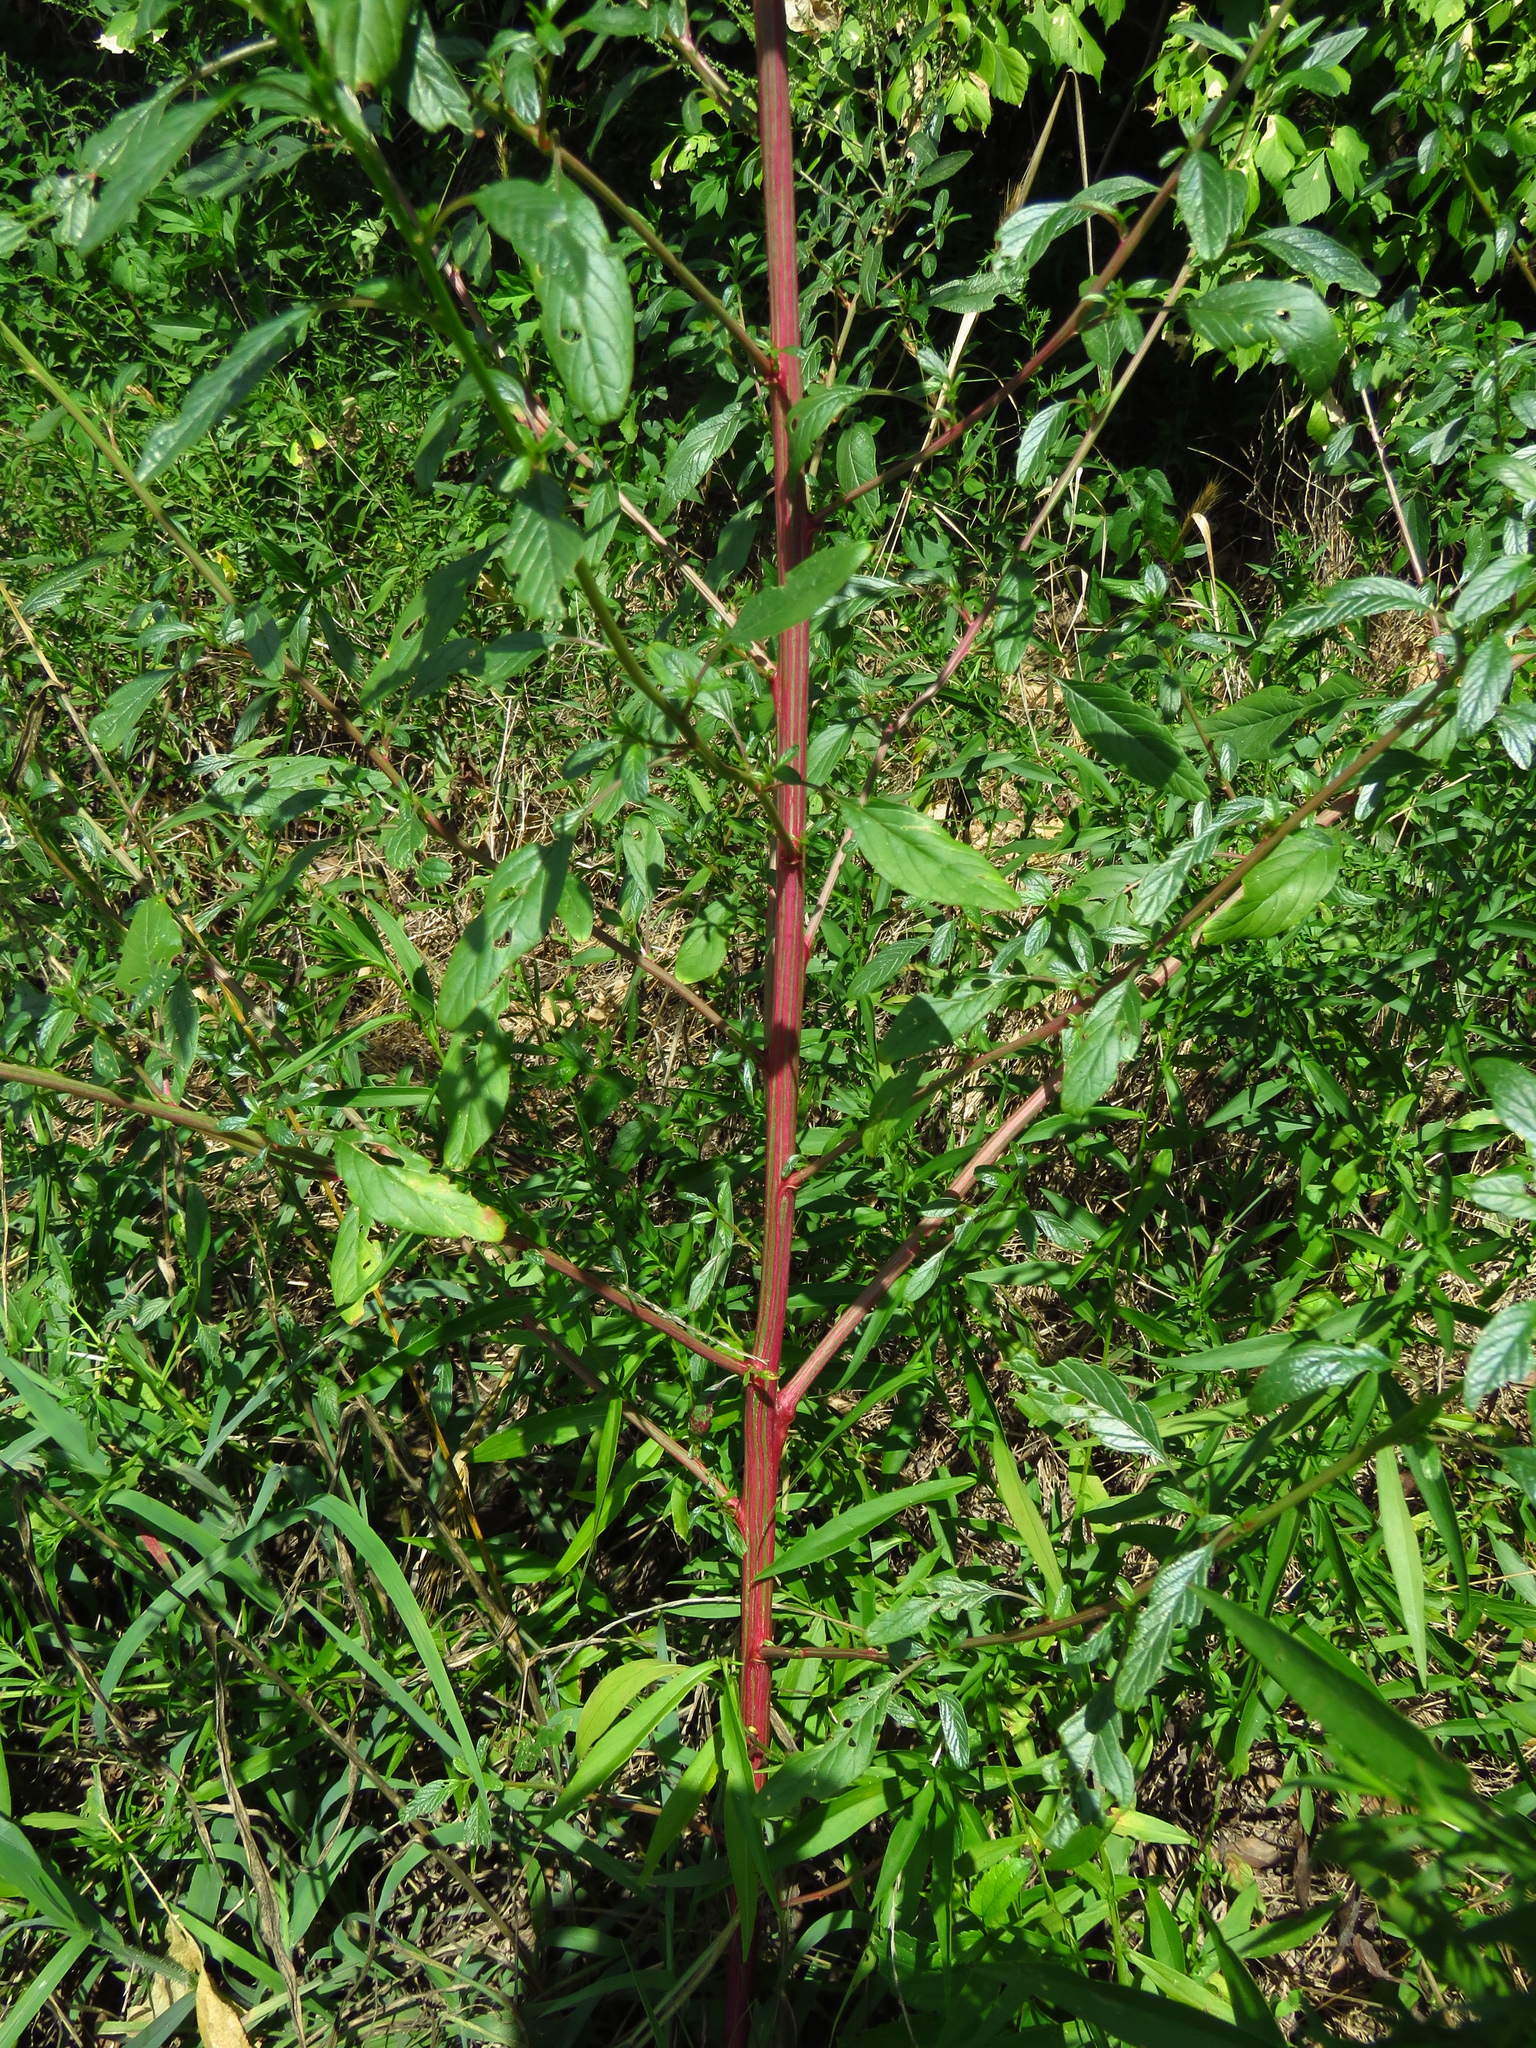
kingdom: Plantae
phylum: Tracheophyta
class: Magnoliopsida
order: Caryophyllales
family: Amaranthaceae
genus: Amaranthus
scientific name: Amaranthus retroflexus
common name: Redroot amaranth
